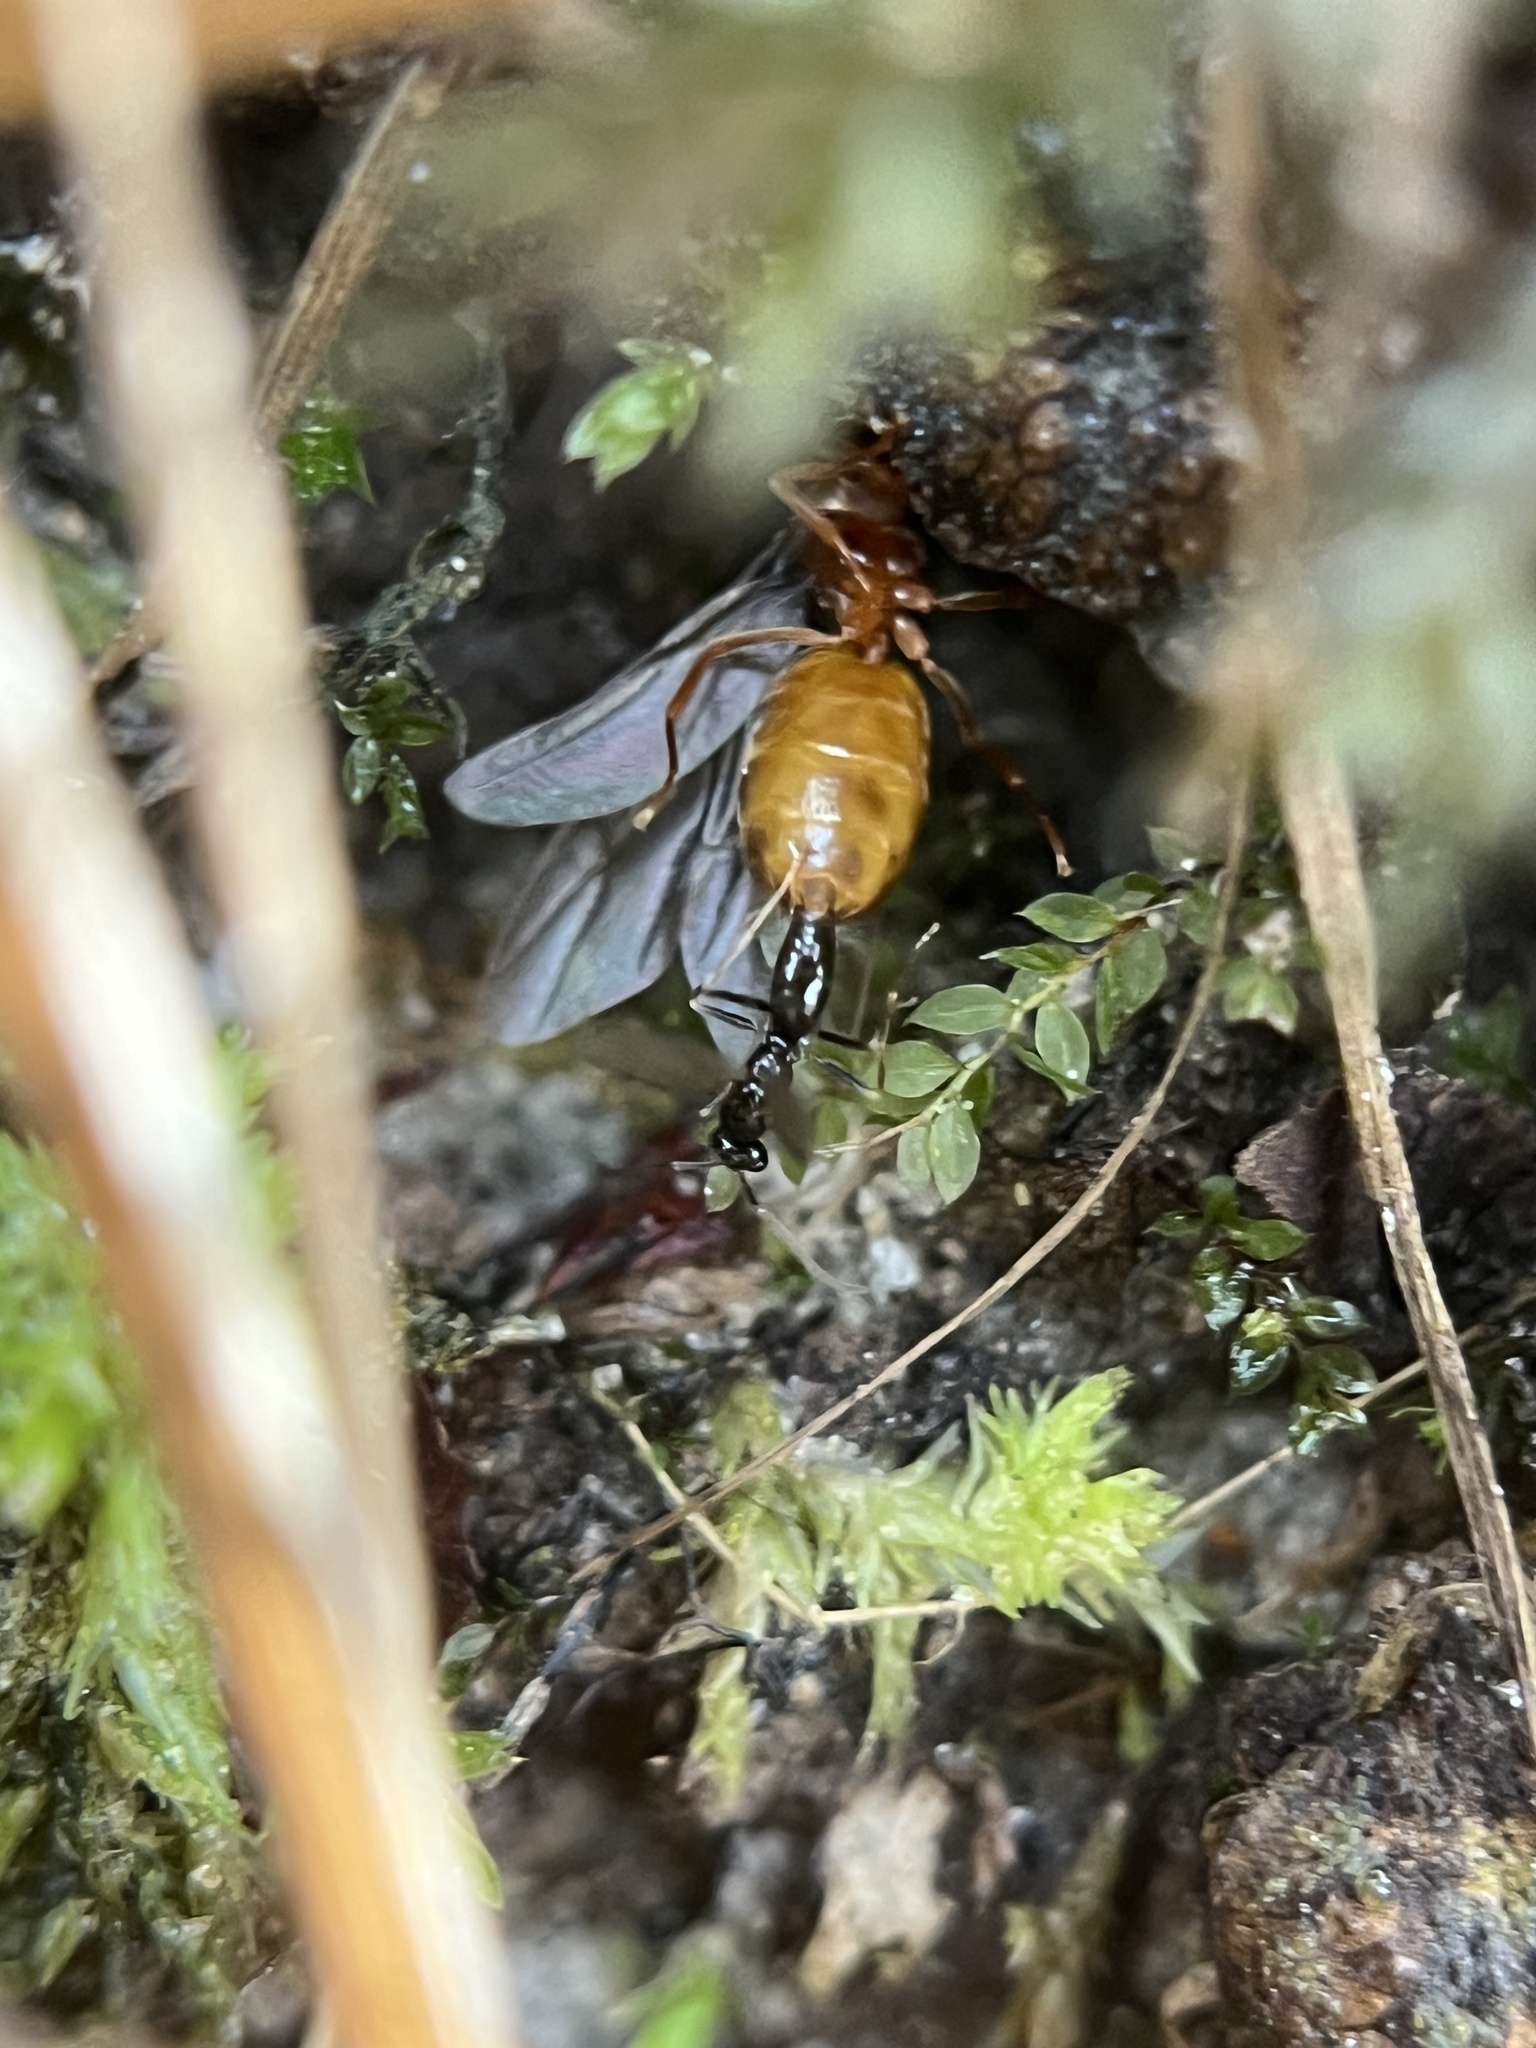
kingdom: Animalia
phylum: Arthropoda
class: Insecta
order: Hymenoptera
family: Formicidae
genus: Prenolepis
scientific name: Prenolepis imparis
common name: Small honey ant
